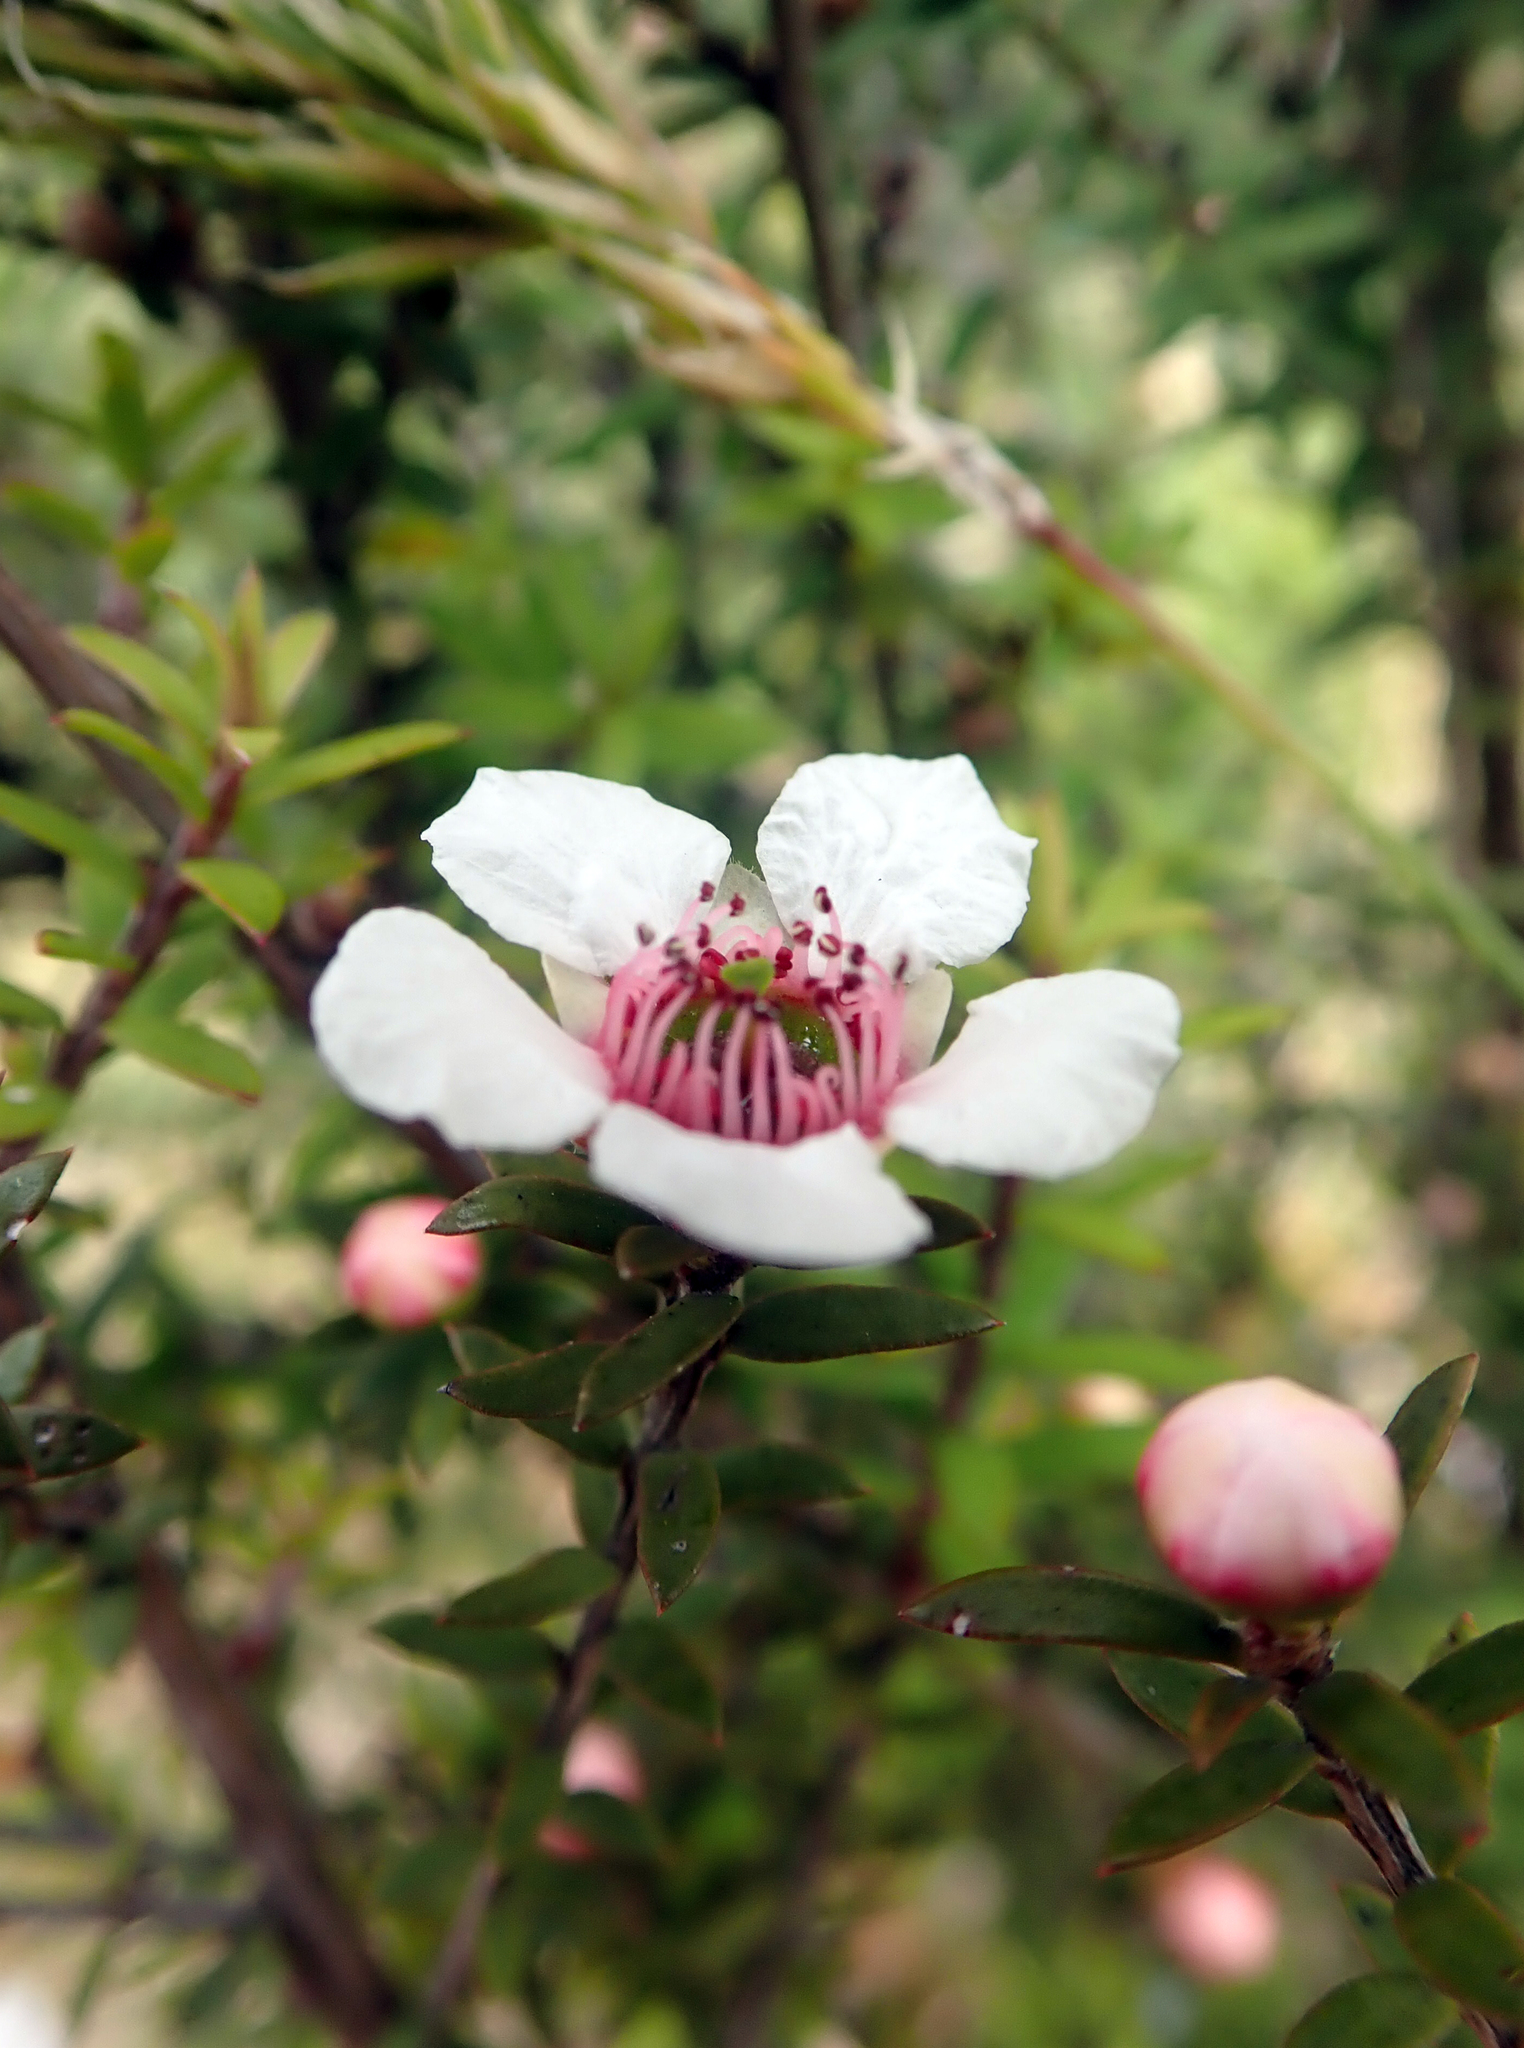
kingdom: Plantae
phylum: Tracheophyta
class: Magnoliopsida
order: Myrtales
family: Myrtaceae
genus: Leptospermum
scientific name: Leptospermum scoparium
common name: Broom tea-tree
